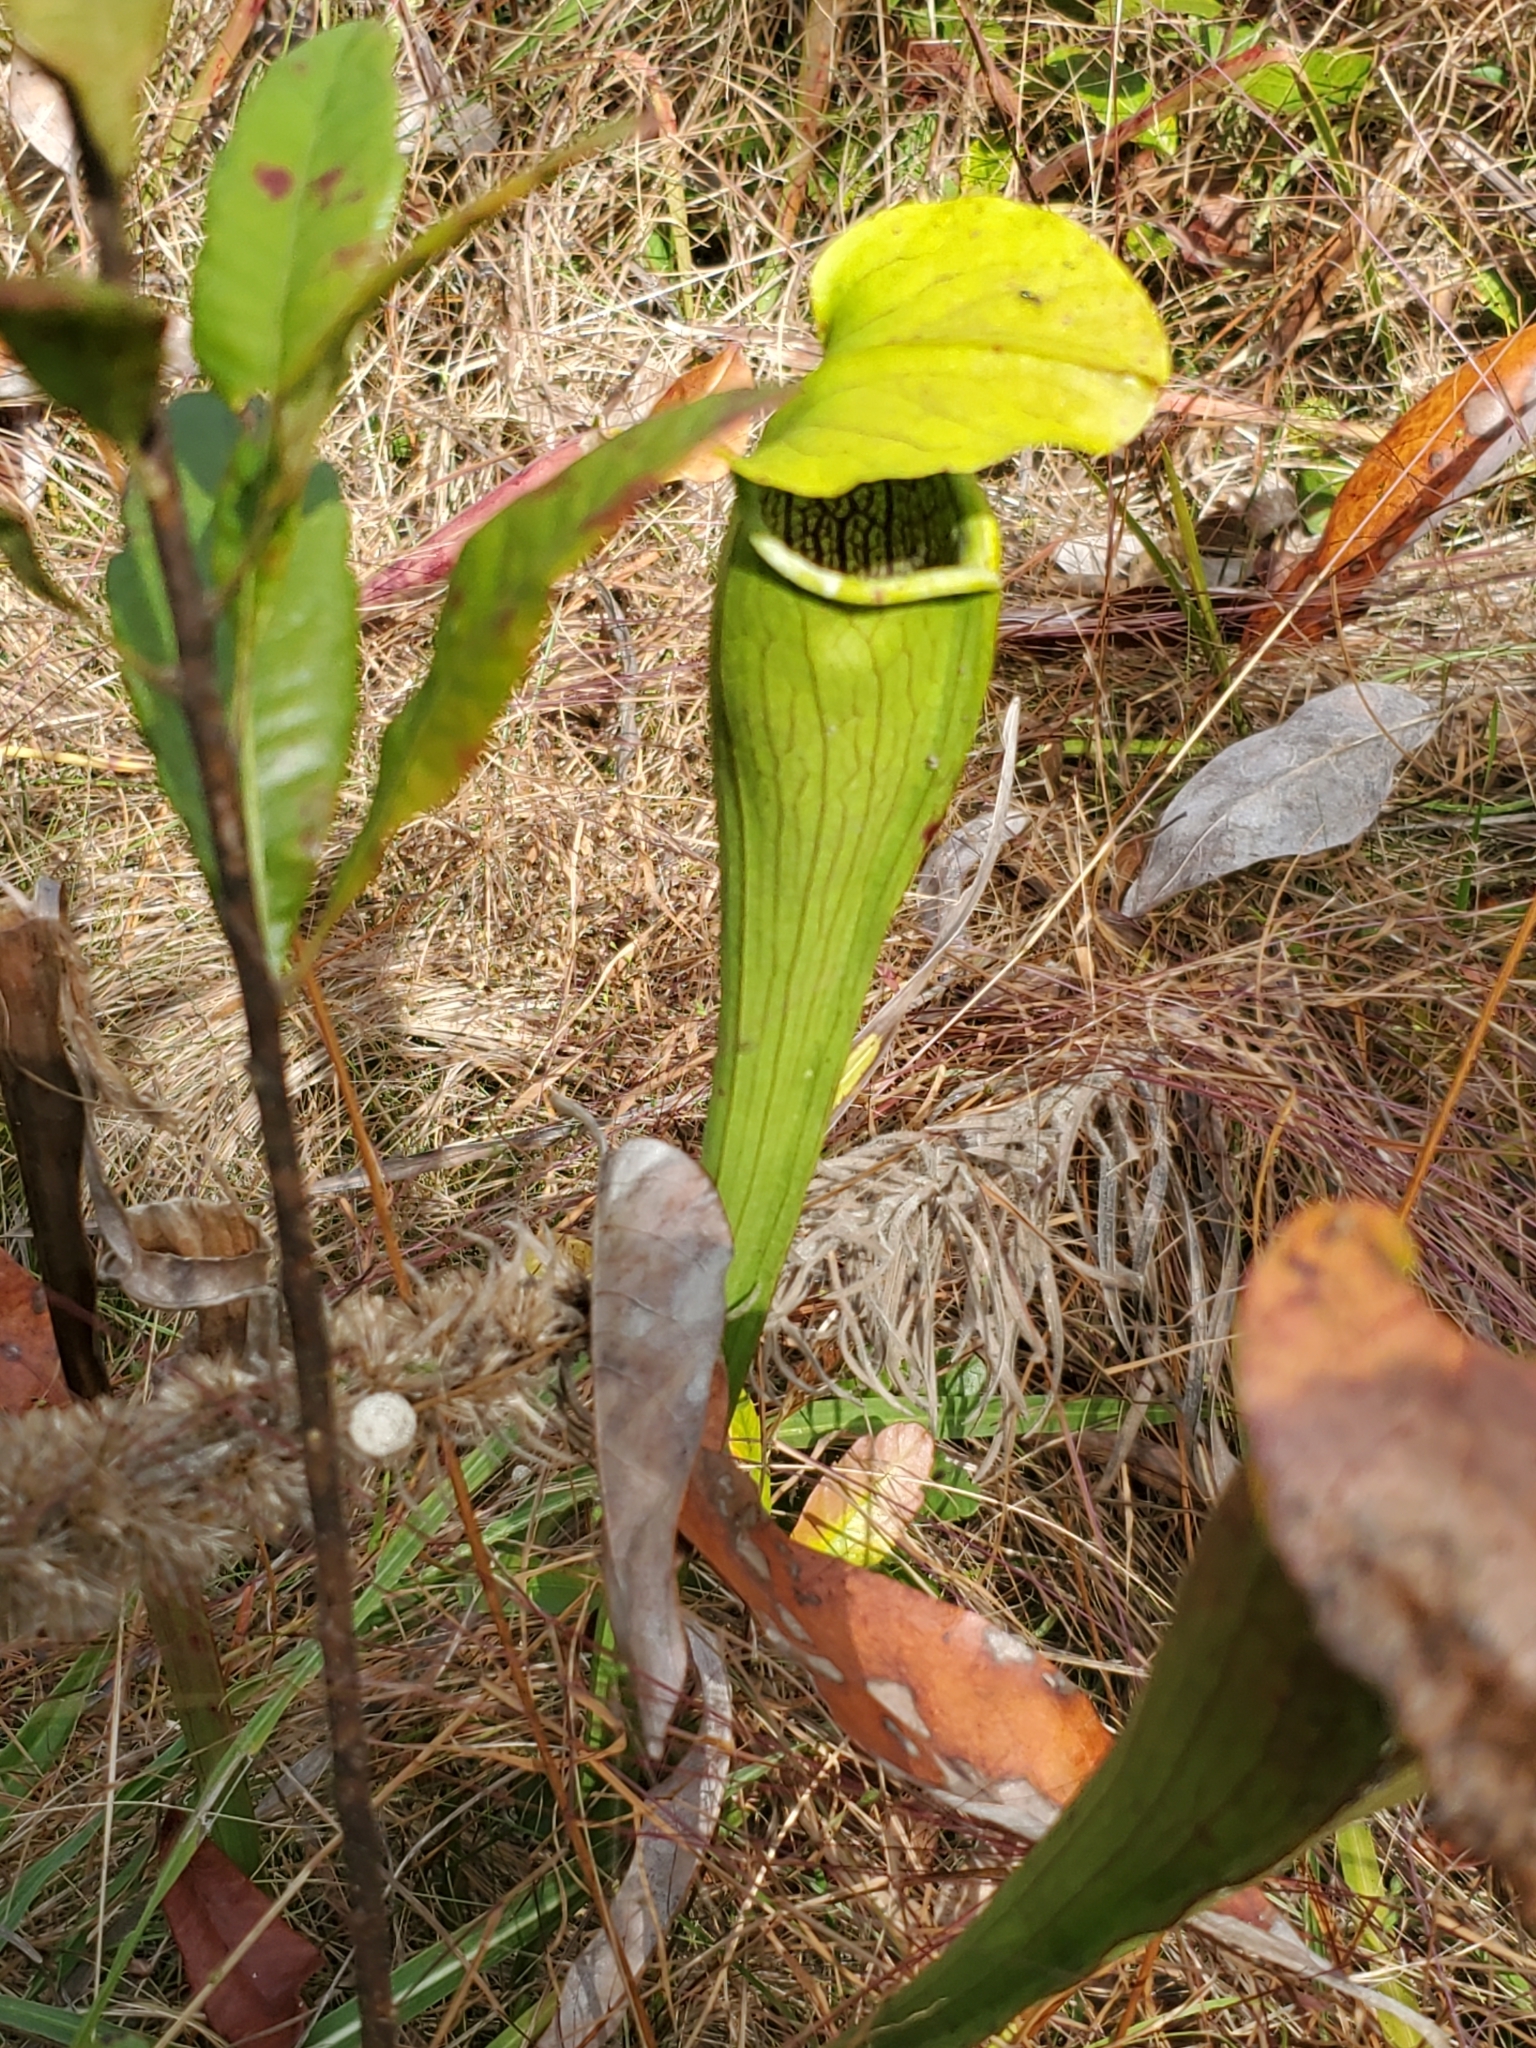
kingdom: Plantae
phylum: Tracheophyta
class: Magnoliopsida
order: Ericales
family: Sarraceniaceae
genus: Sarracenia
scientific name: Sarracenia alata
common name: Yellow trumpets
